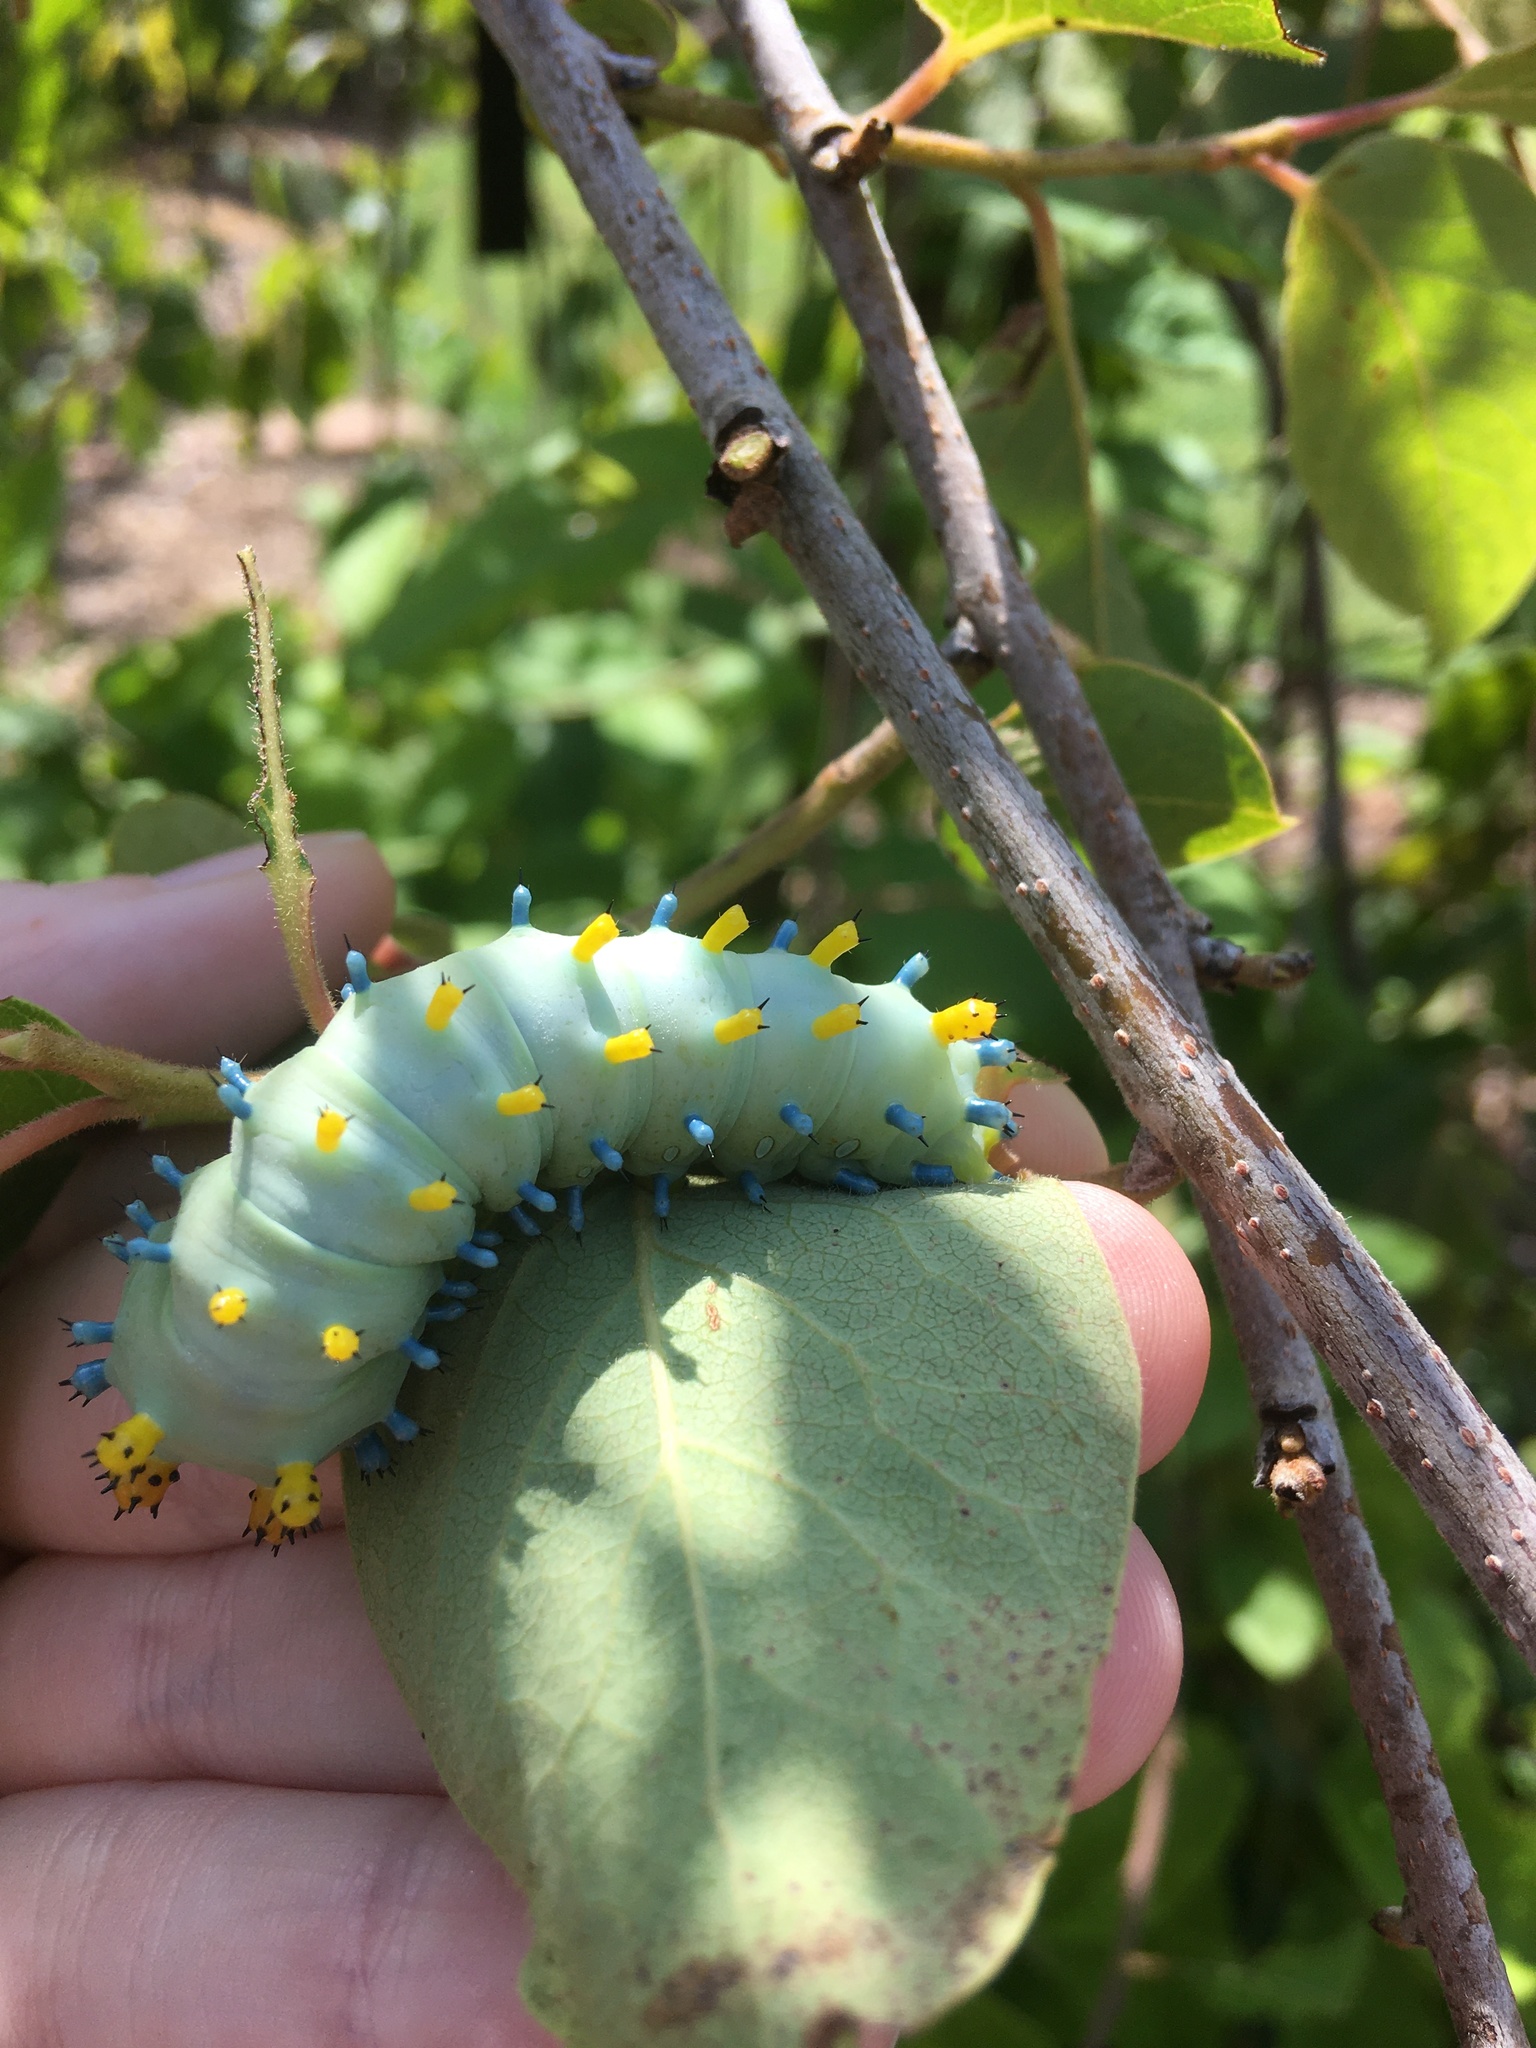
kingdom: Animalia
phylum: Arthropoda
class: Insecta
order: Lepidoptera
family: Saturniidae
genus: Hyalophora
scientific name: Hyalophora cecropia
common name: Cecropia silkmoth
